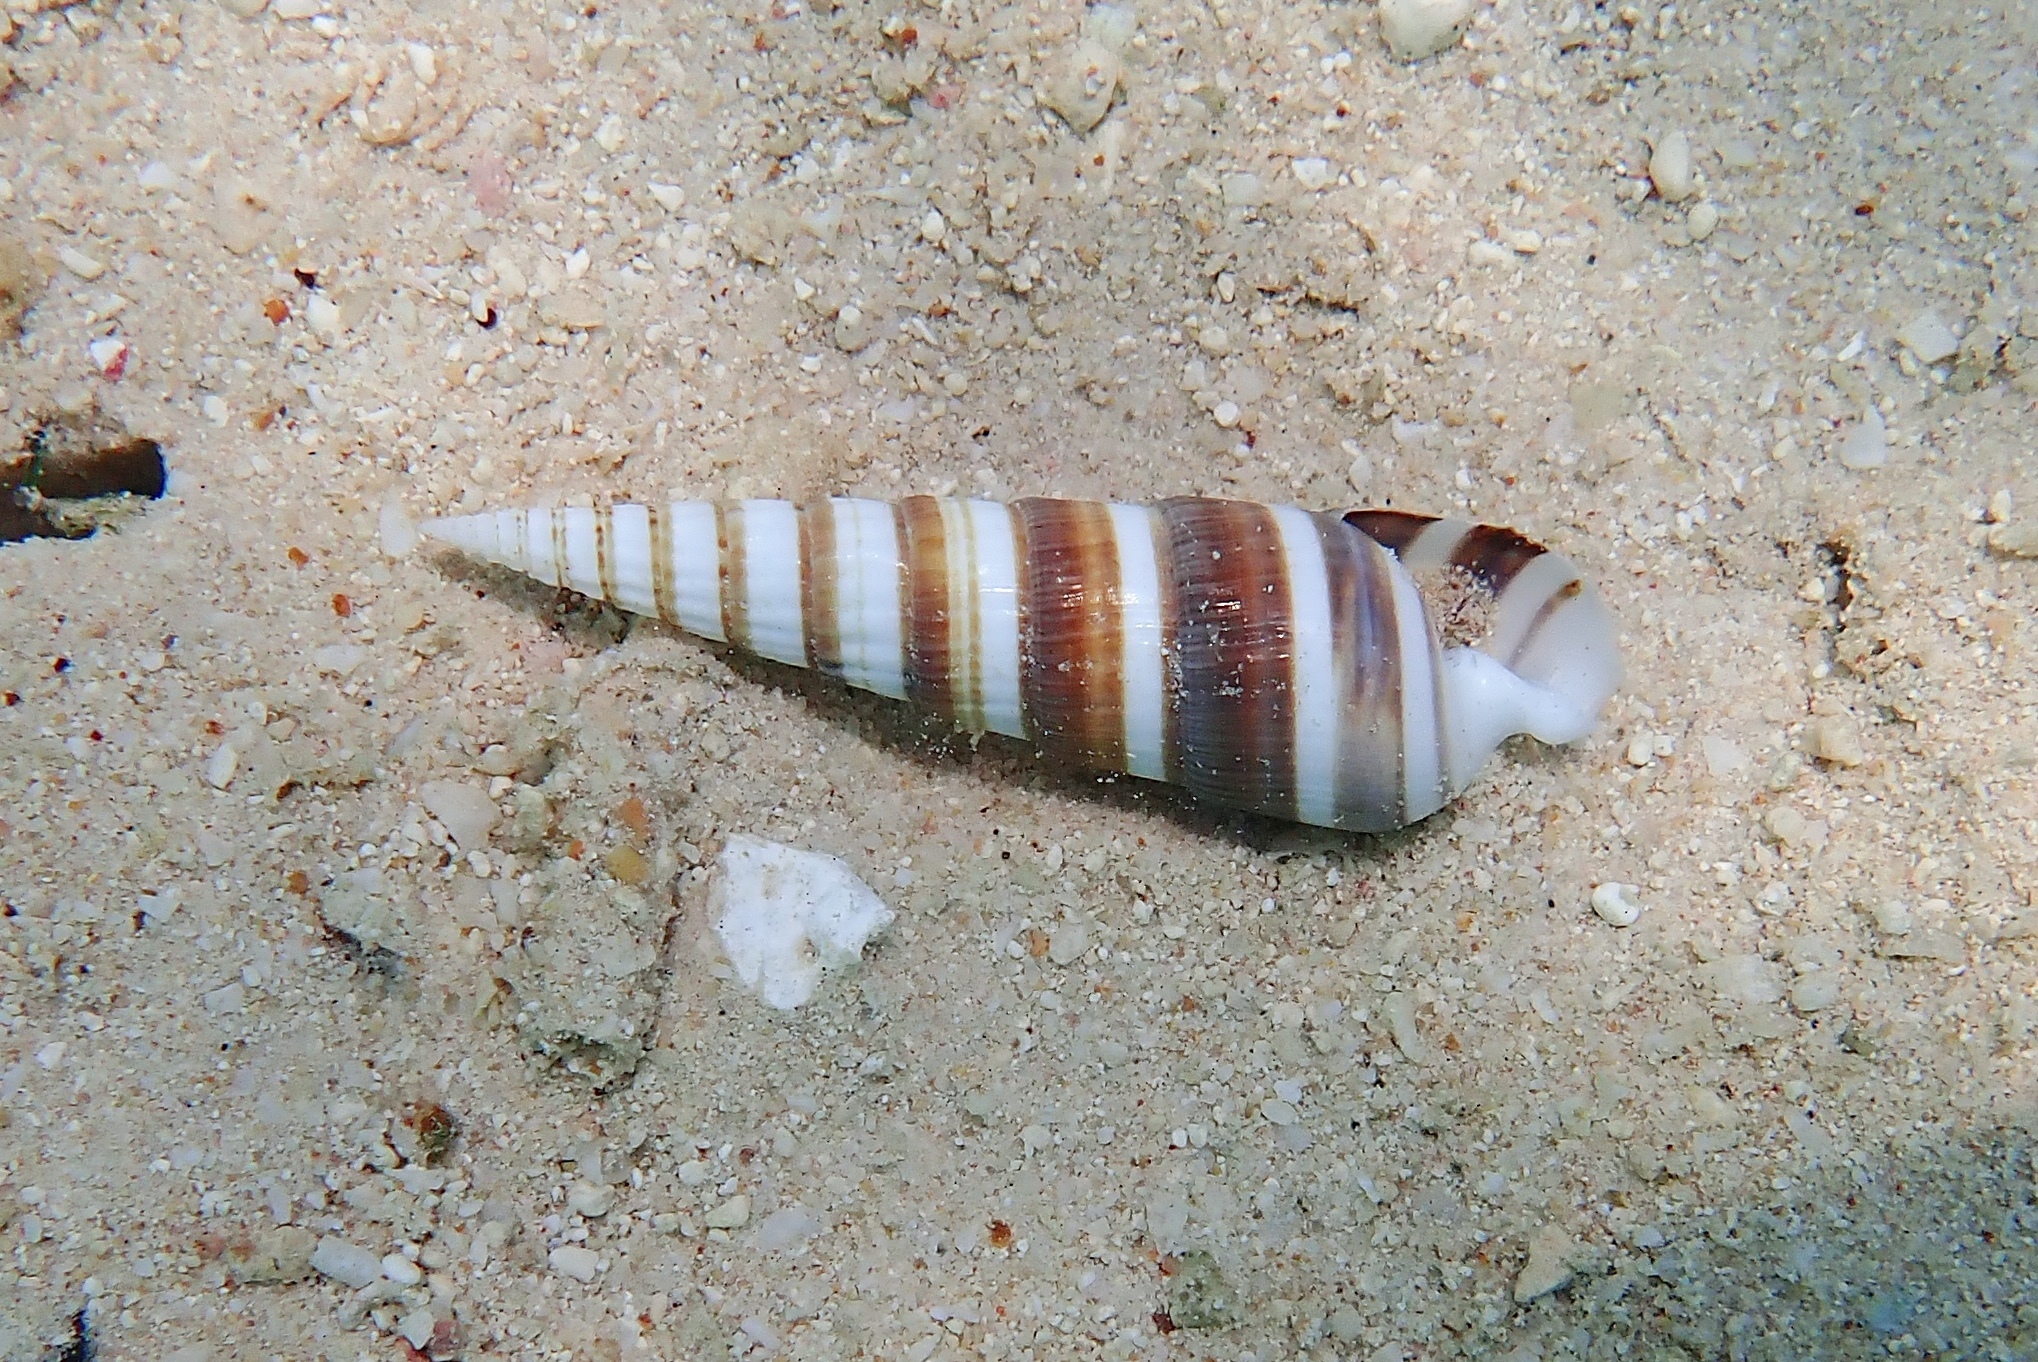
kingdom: Animalia
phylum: Mollusca
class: Gastropoda
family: Cerithiidae
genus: Rhinoclavis
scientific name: Rhinoclavis fasciata
